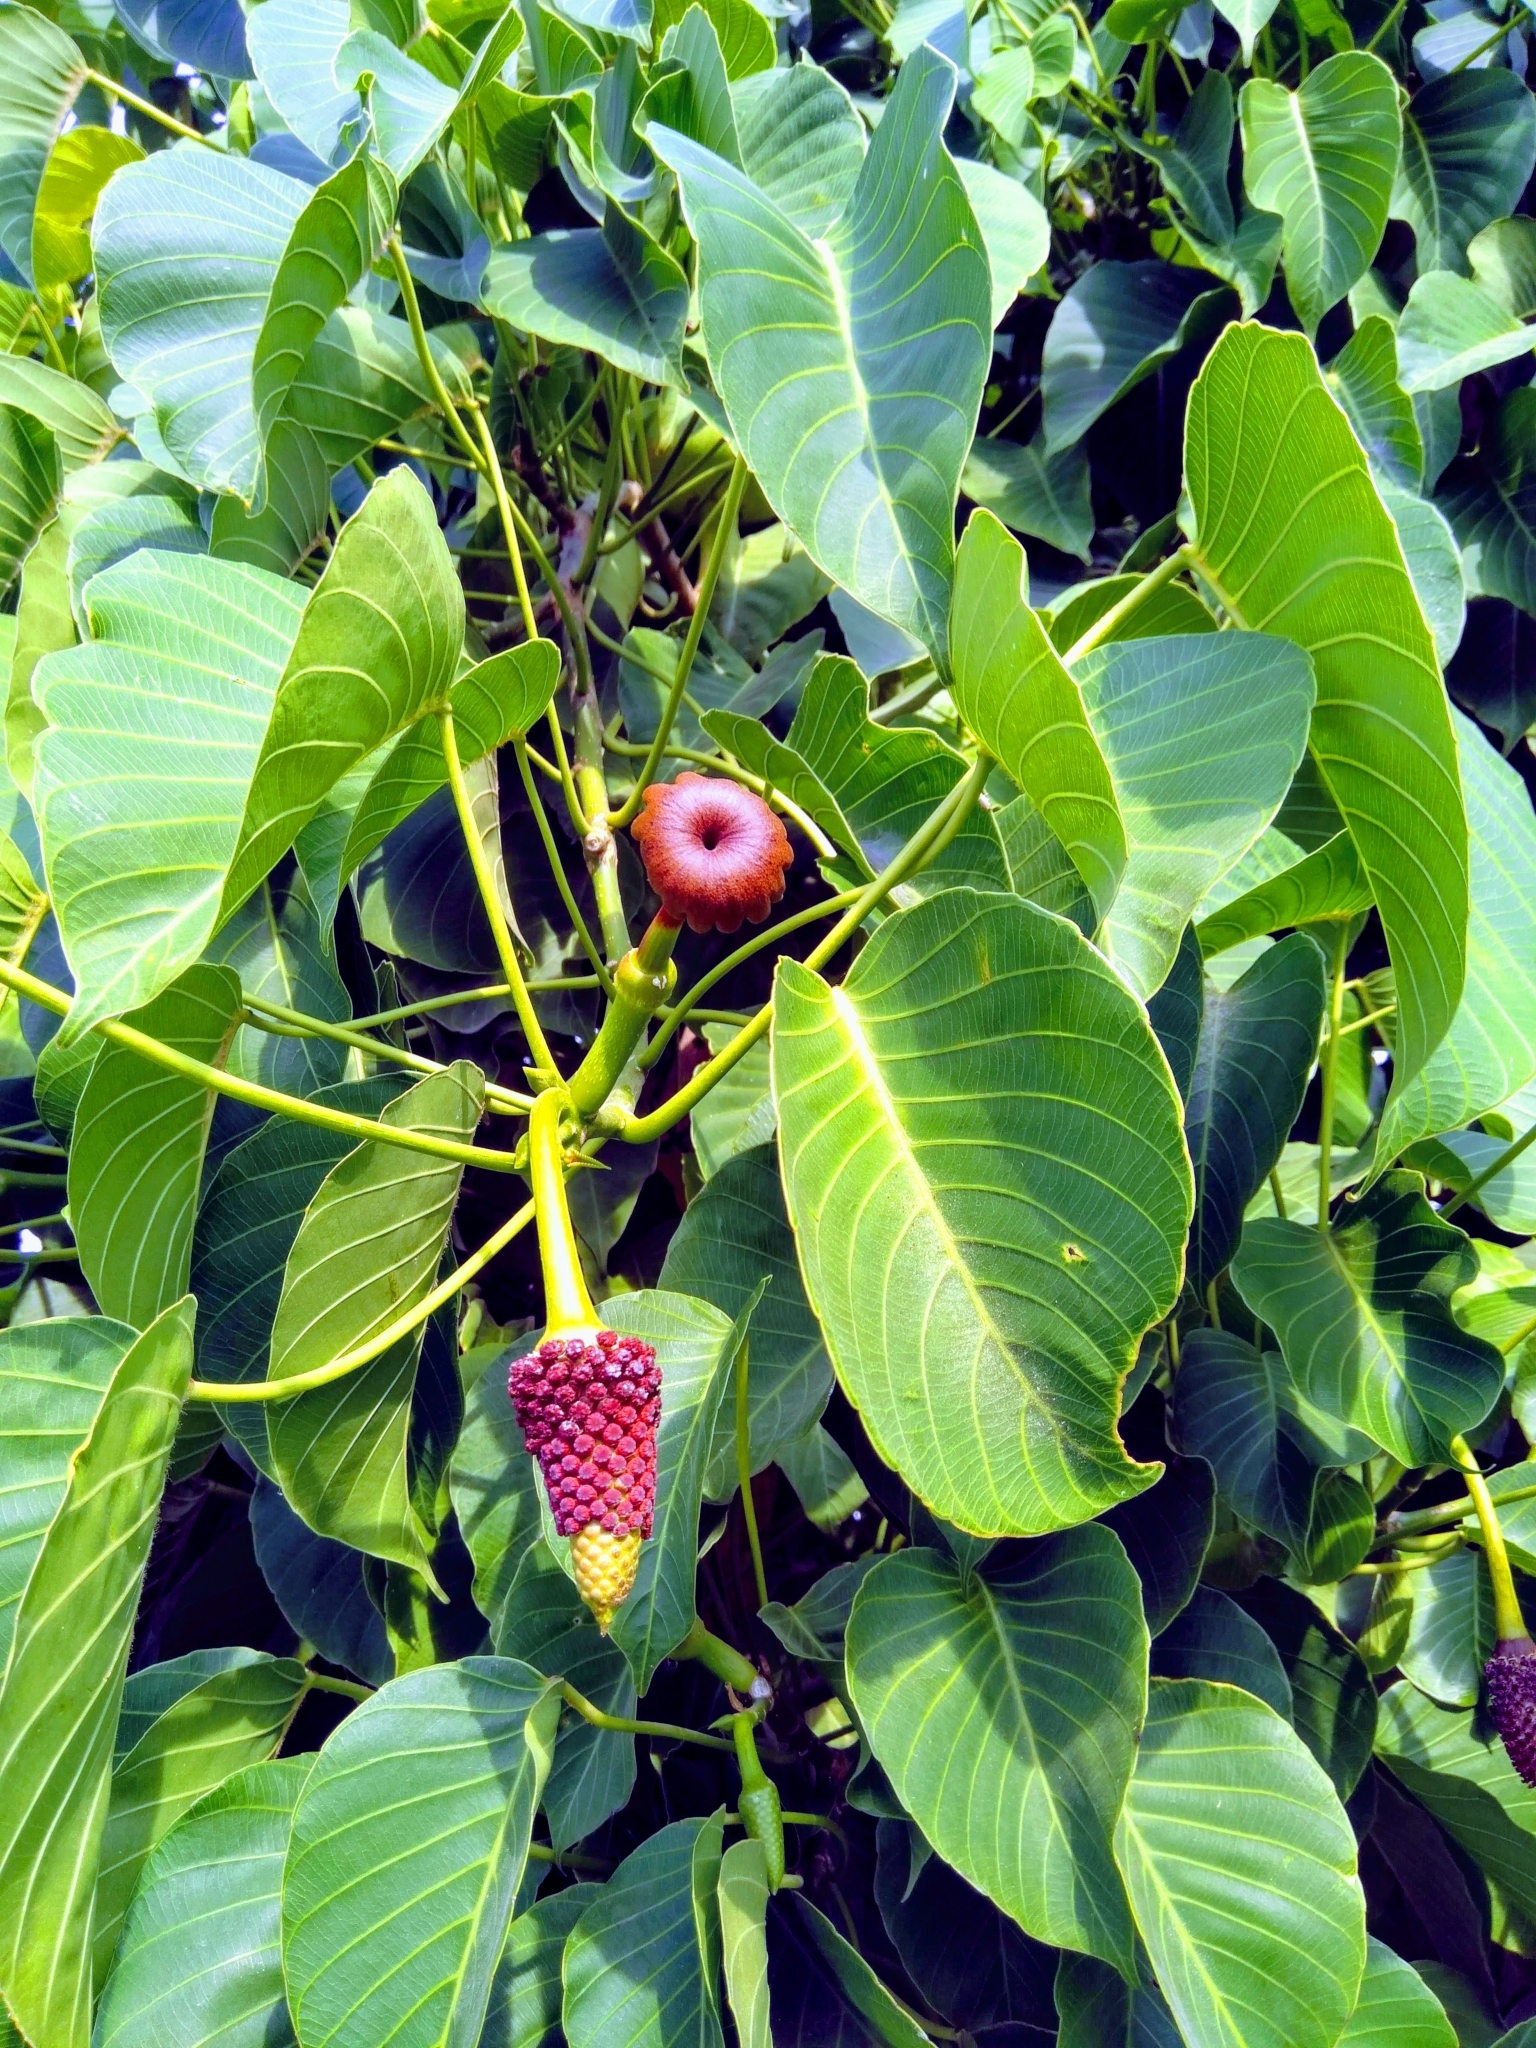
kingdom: Plantae
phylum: Tracheophyta
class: Magnoliopsida
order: Malpighiales
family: Euphorbiaceae
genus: Hura
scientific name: Hura crepitans
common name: Sandboxtree
